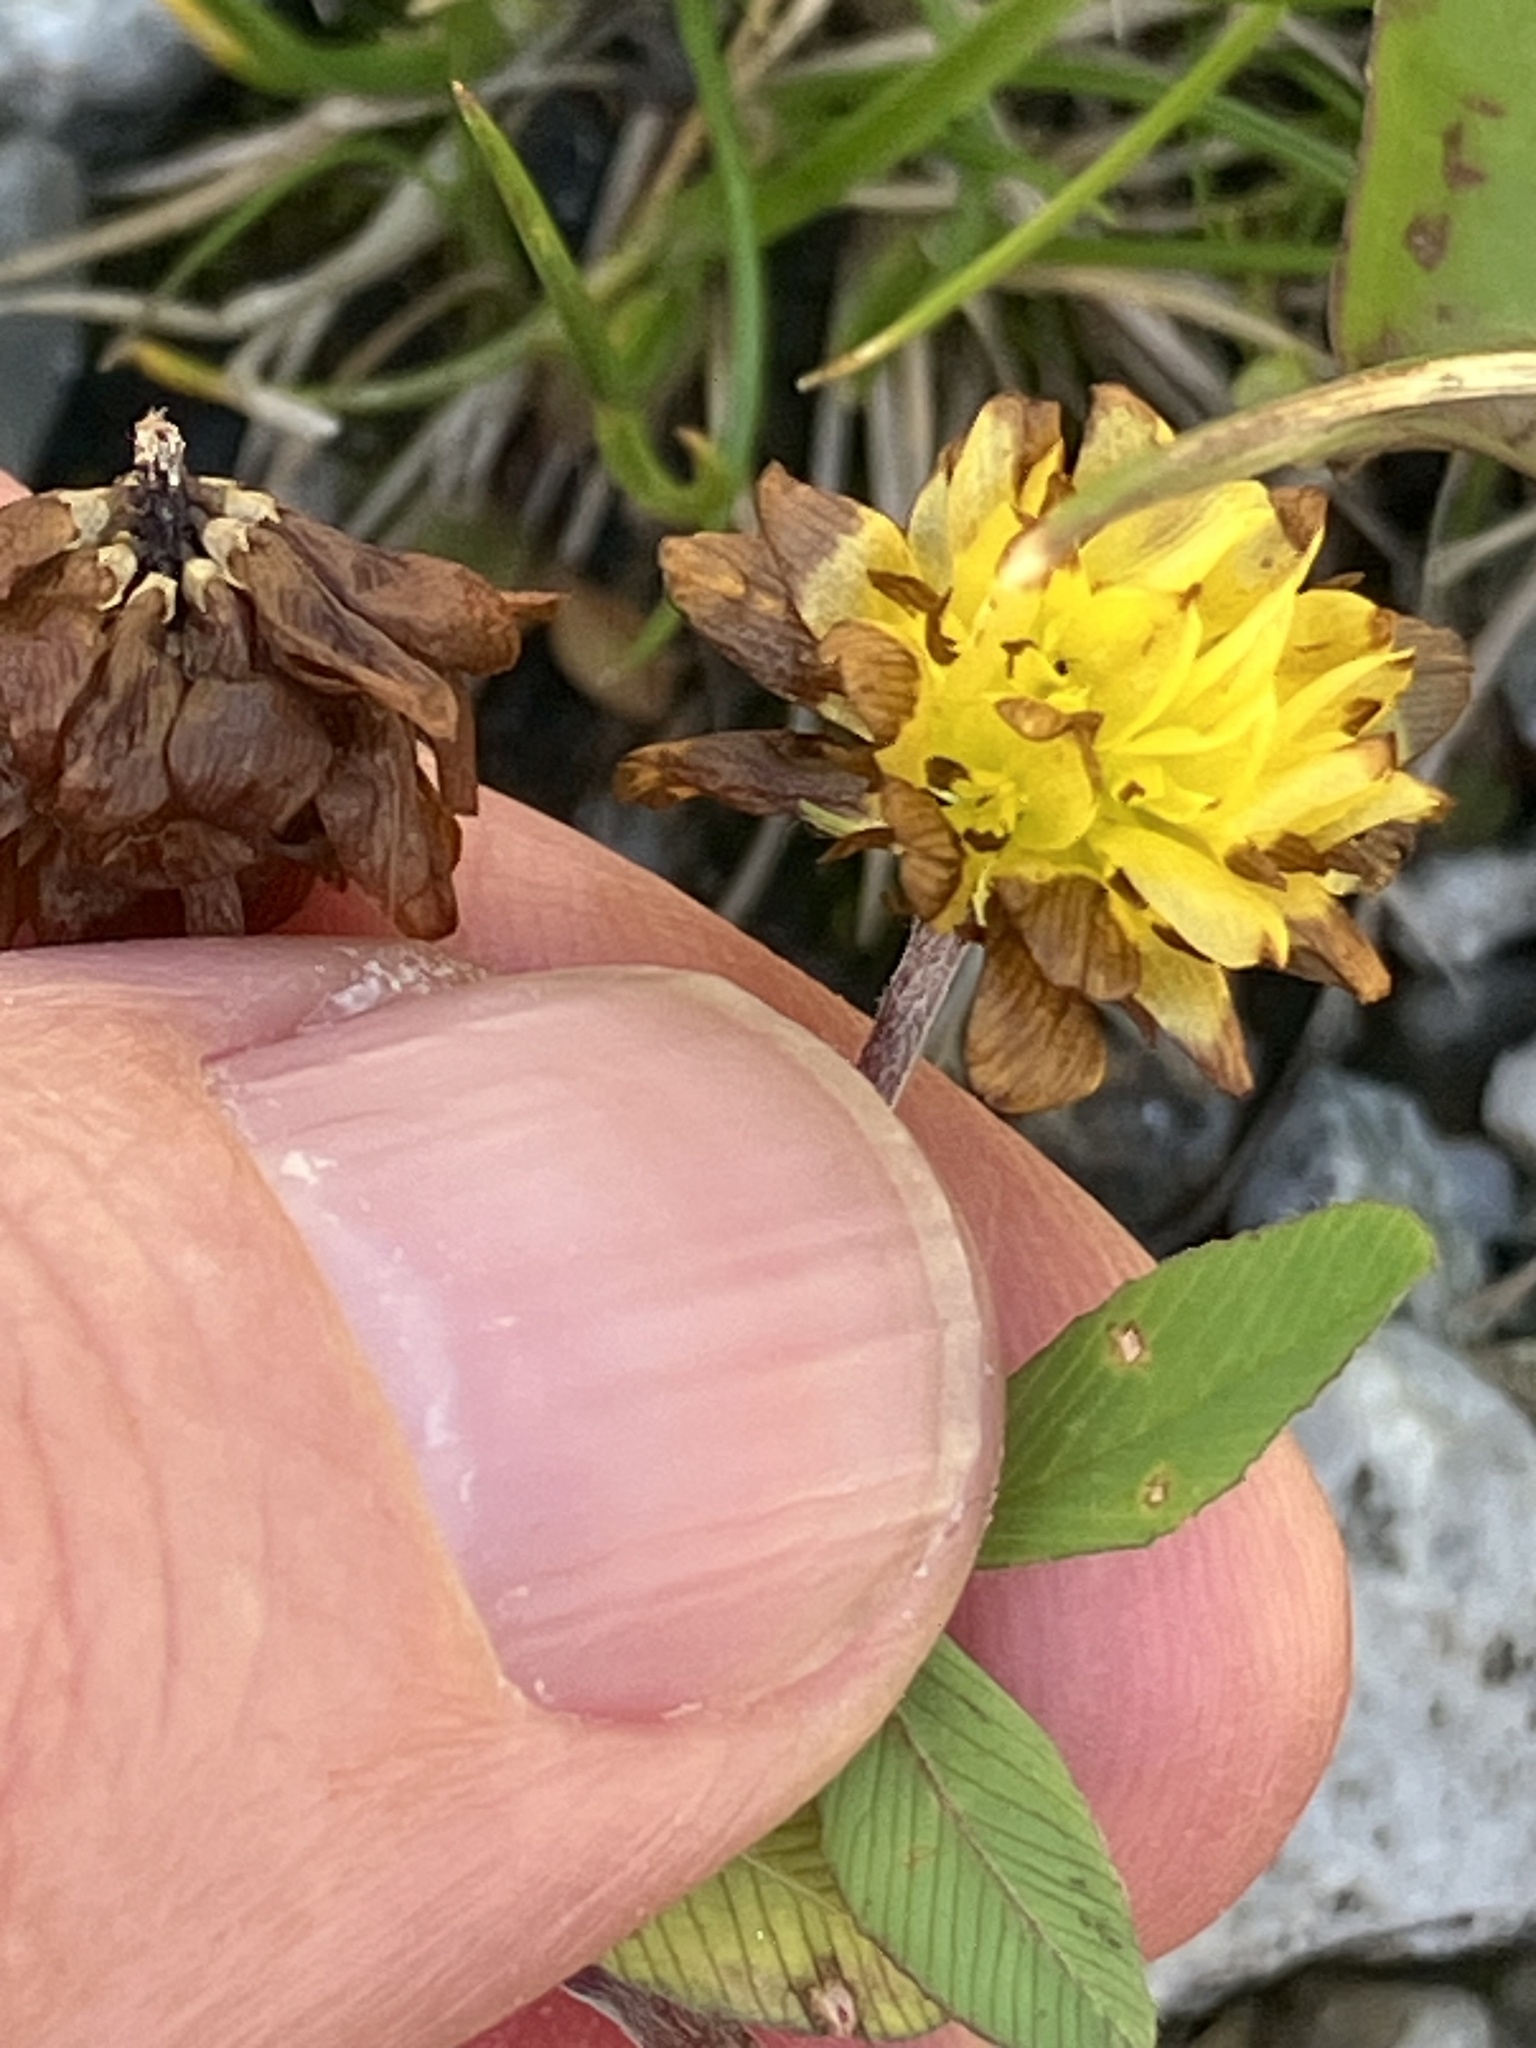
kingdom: Plantae
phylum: Tracheophyta
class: Magnoliopsida
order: Fabales
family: Fabaceae
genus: Trifolium
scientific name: Trifolium badium
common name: Brown clover
